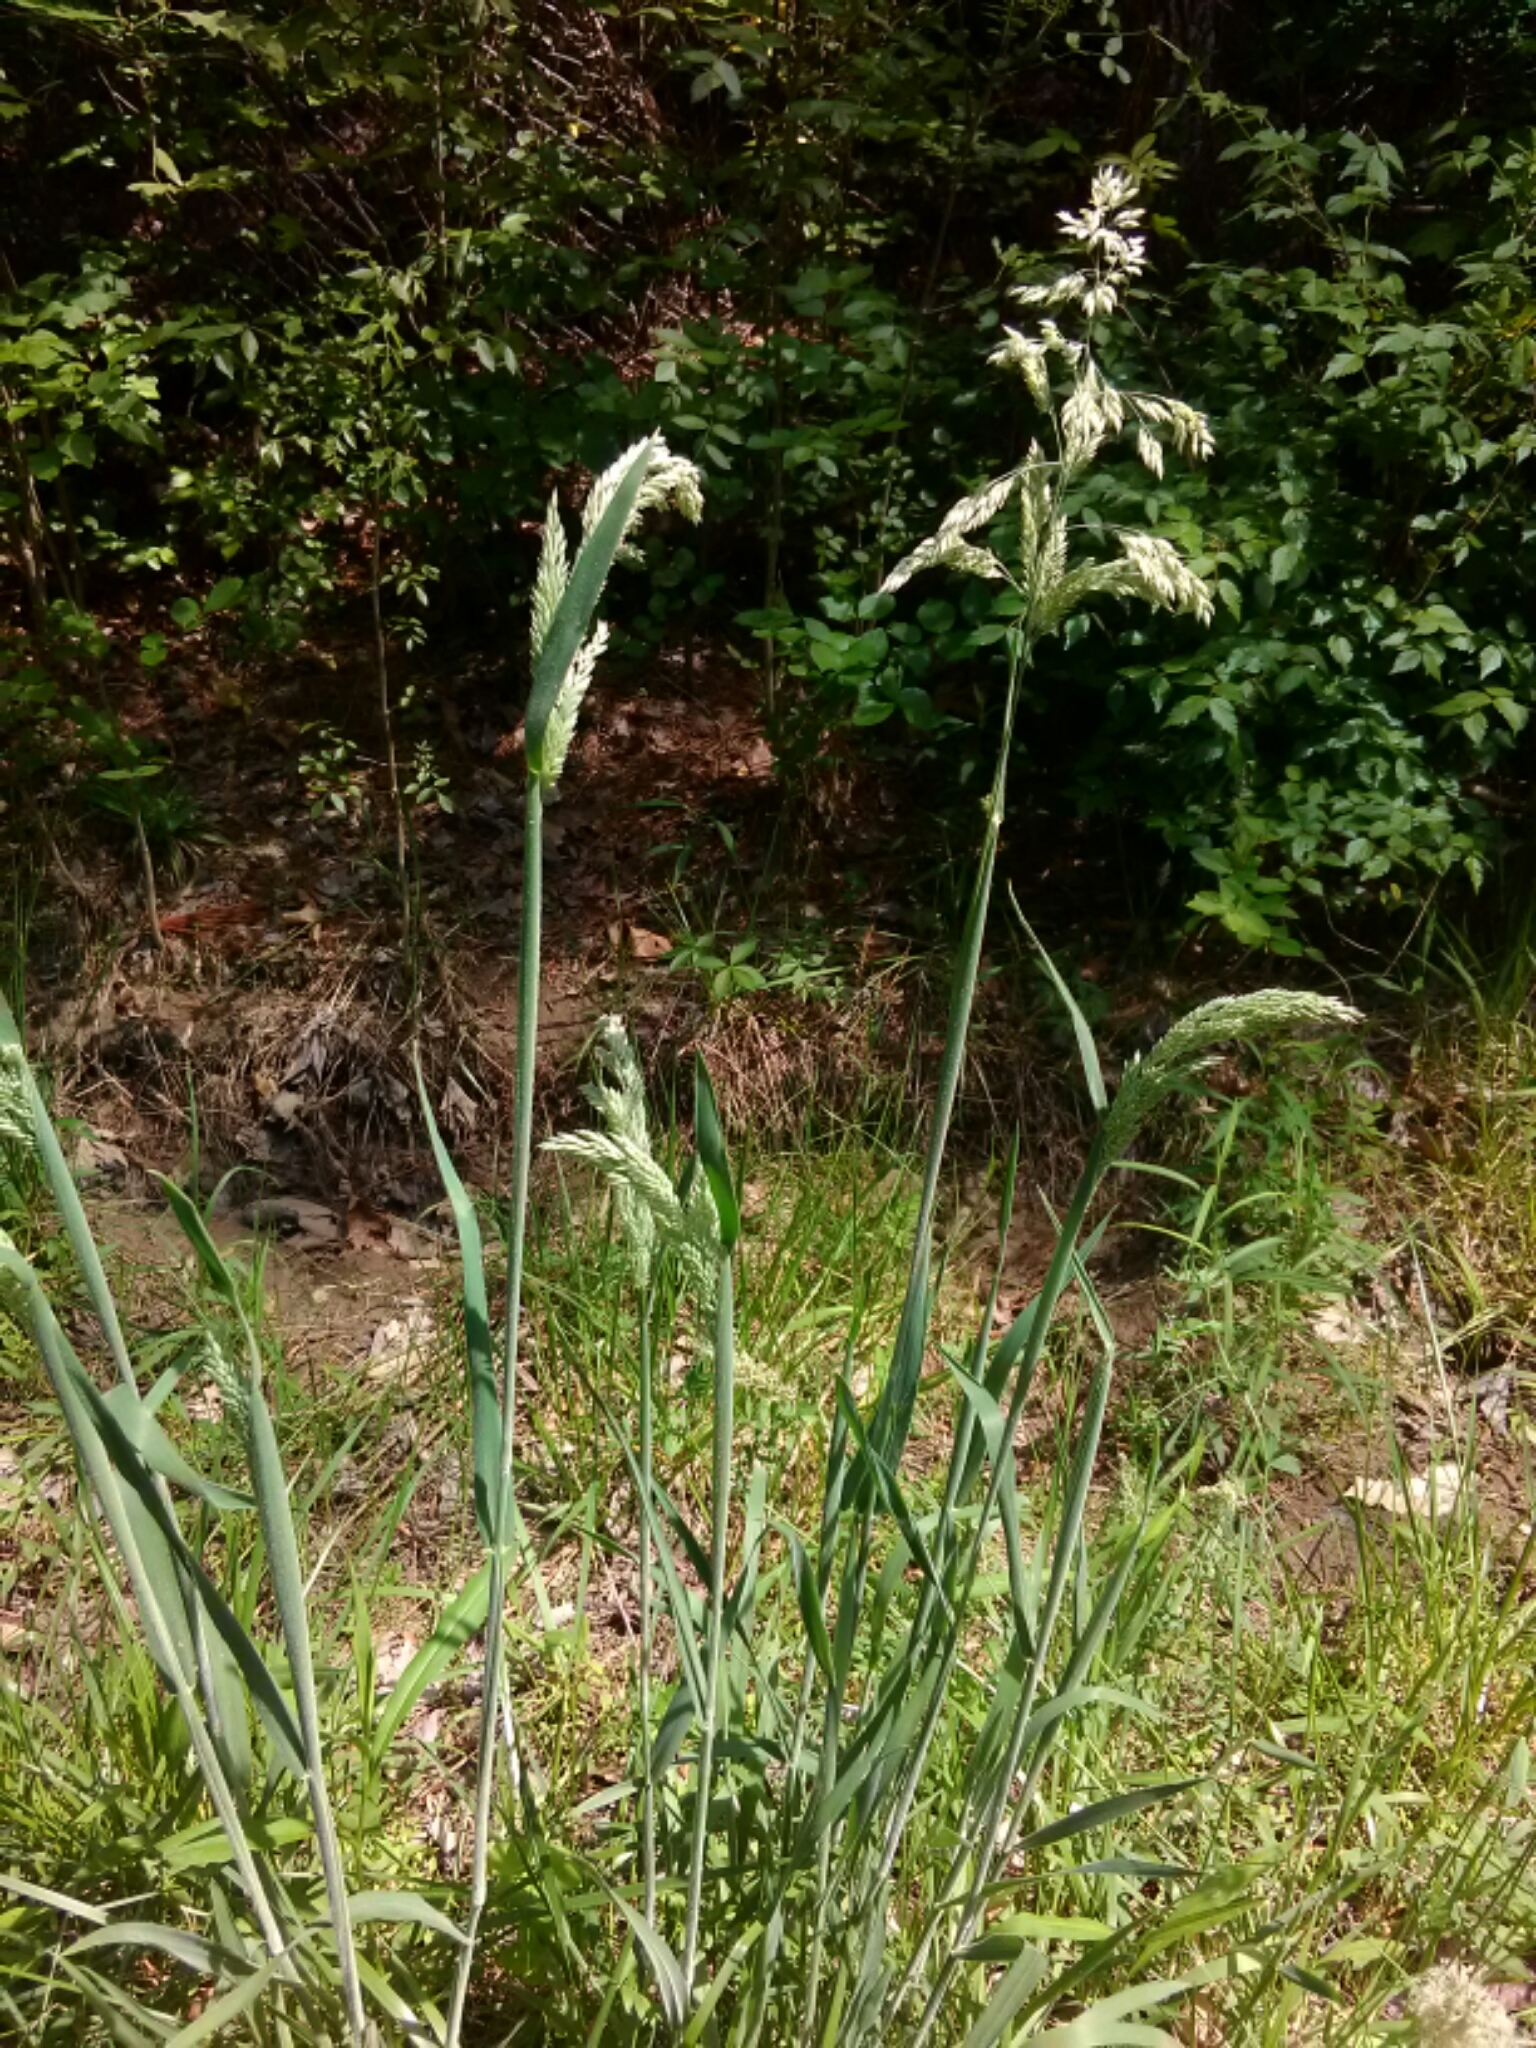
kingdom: Plantae
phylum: Tracheophyta
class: Liliopsida
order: Poales
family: Poaceae
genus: Holcus
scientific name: Holcus lanatus
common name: Yorkshire-fog
